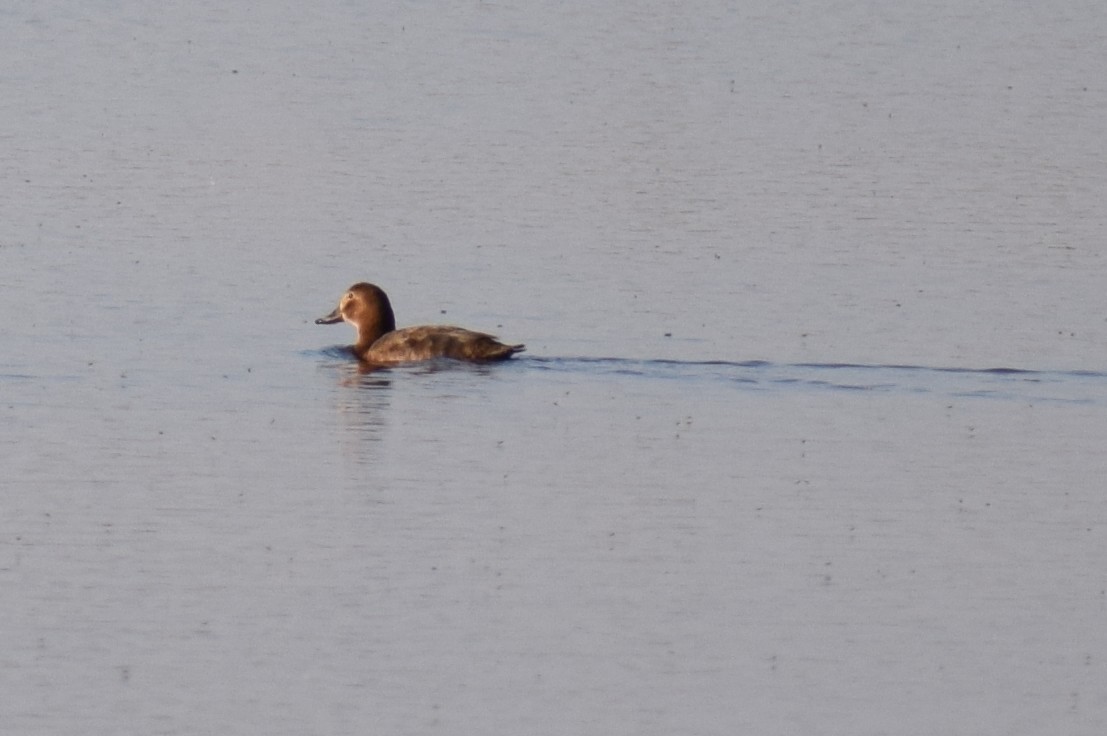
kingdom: Animalia
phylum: Chordata
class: Aves
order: Anseriformes
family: Anatidae
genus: Aythya
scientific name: Aythya ferina
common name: Common pochard
